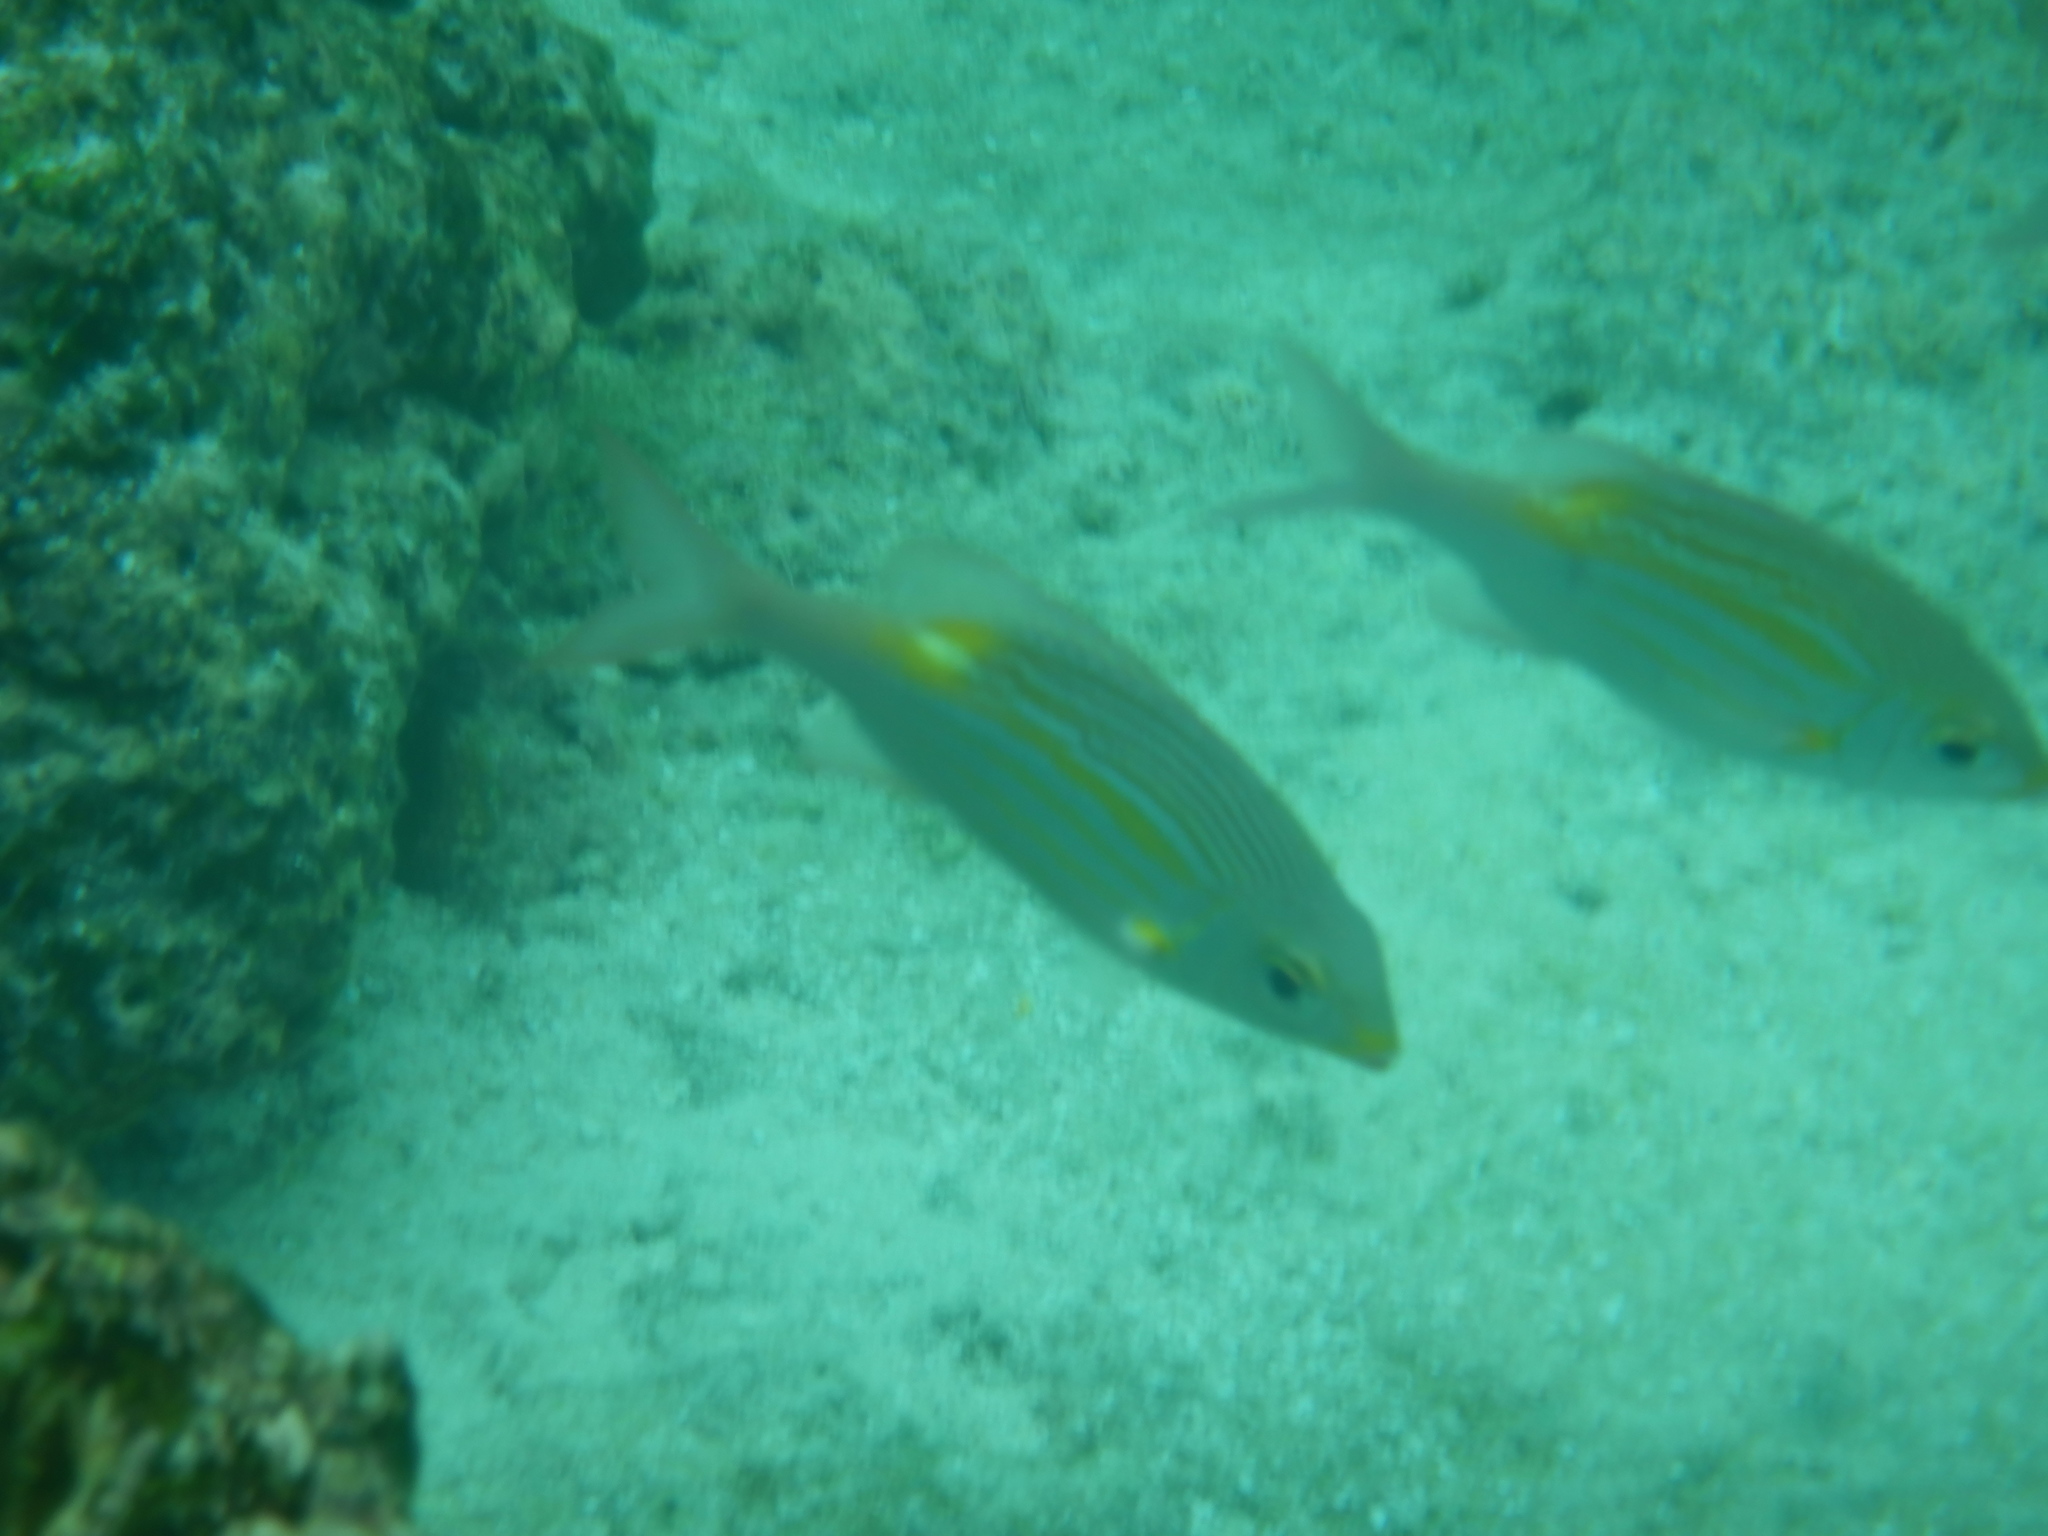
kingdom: Animalia
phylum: Chordata
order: Perciformes
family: Lethrinidae
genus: Gnathodentex
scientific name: Gnathodentex aureolineatus
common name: Gold-lined sea bream
